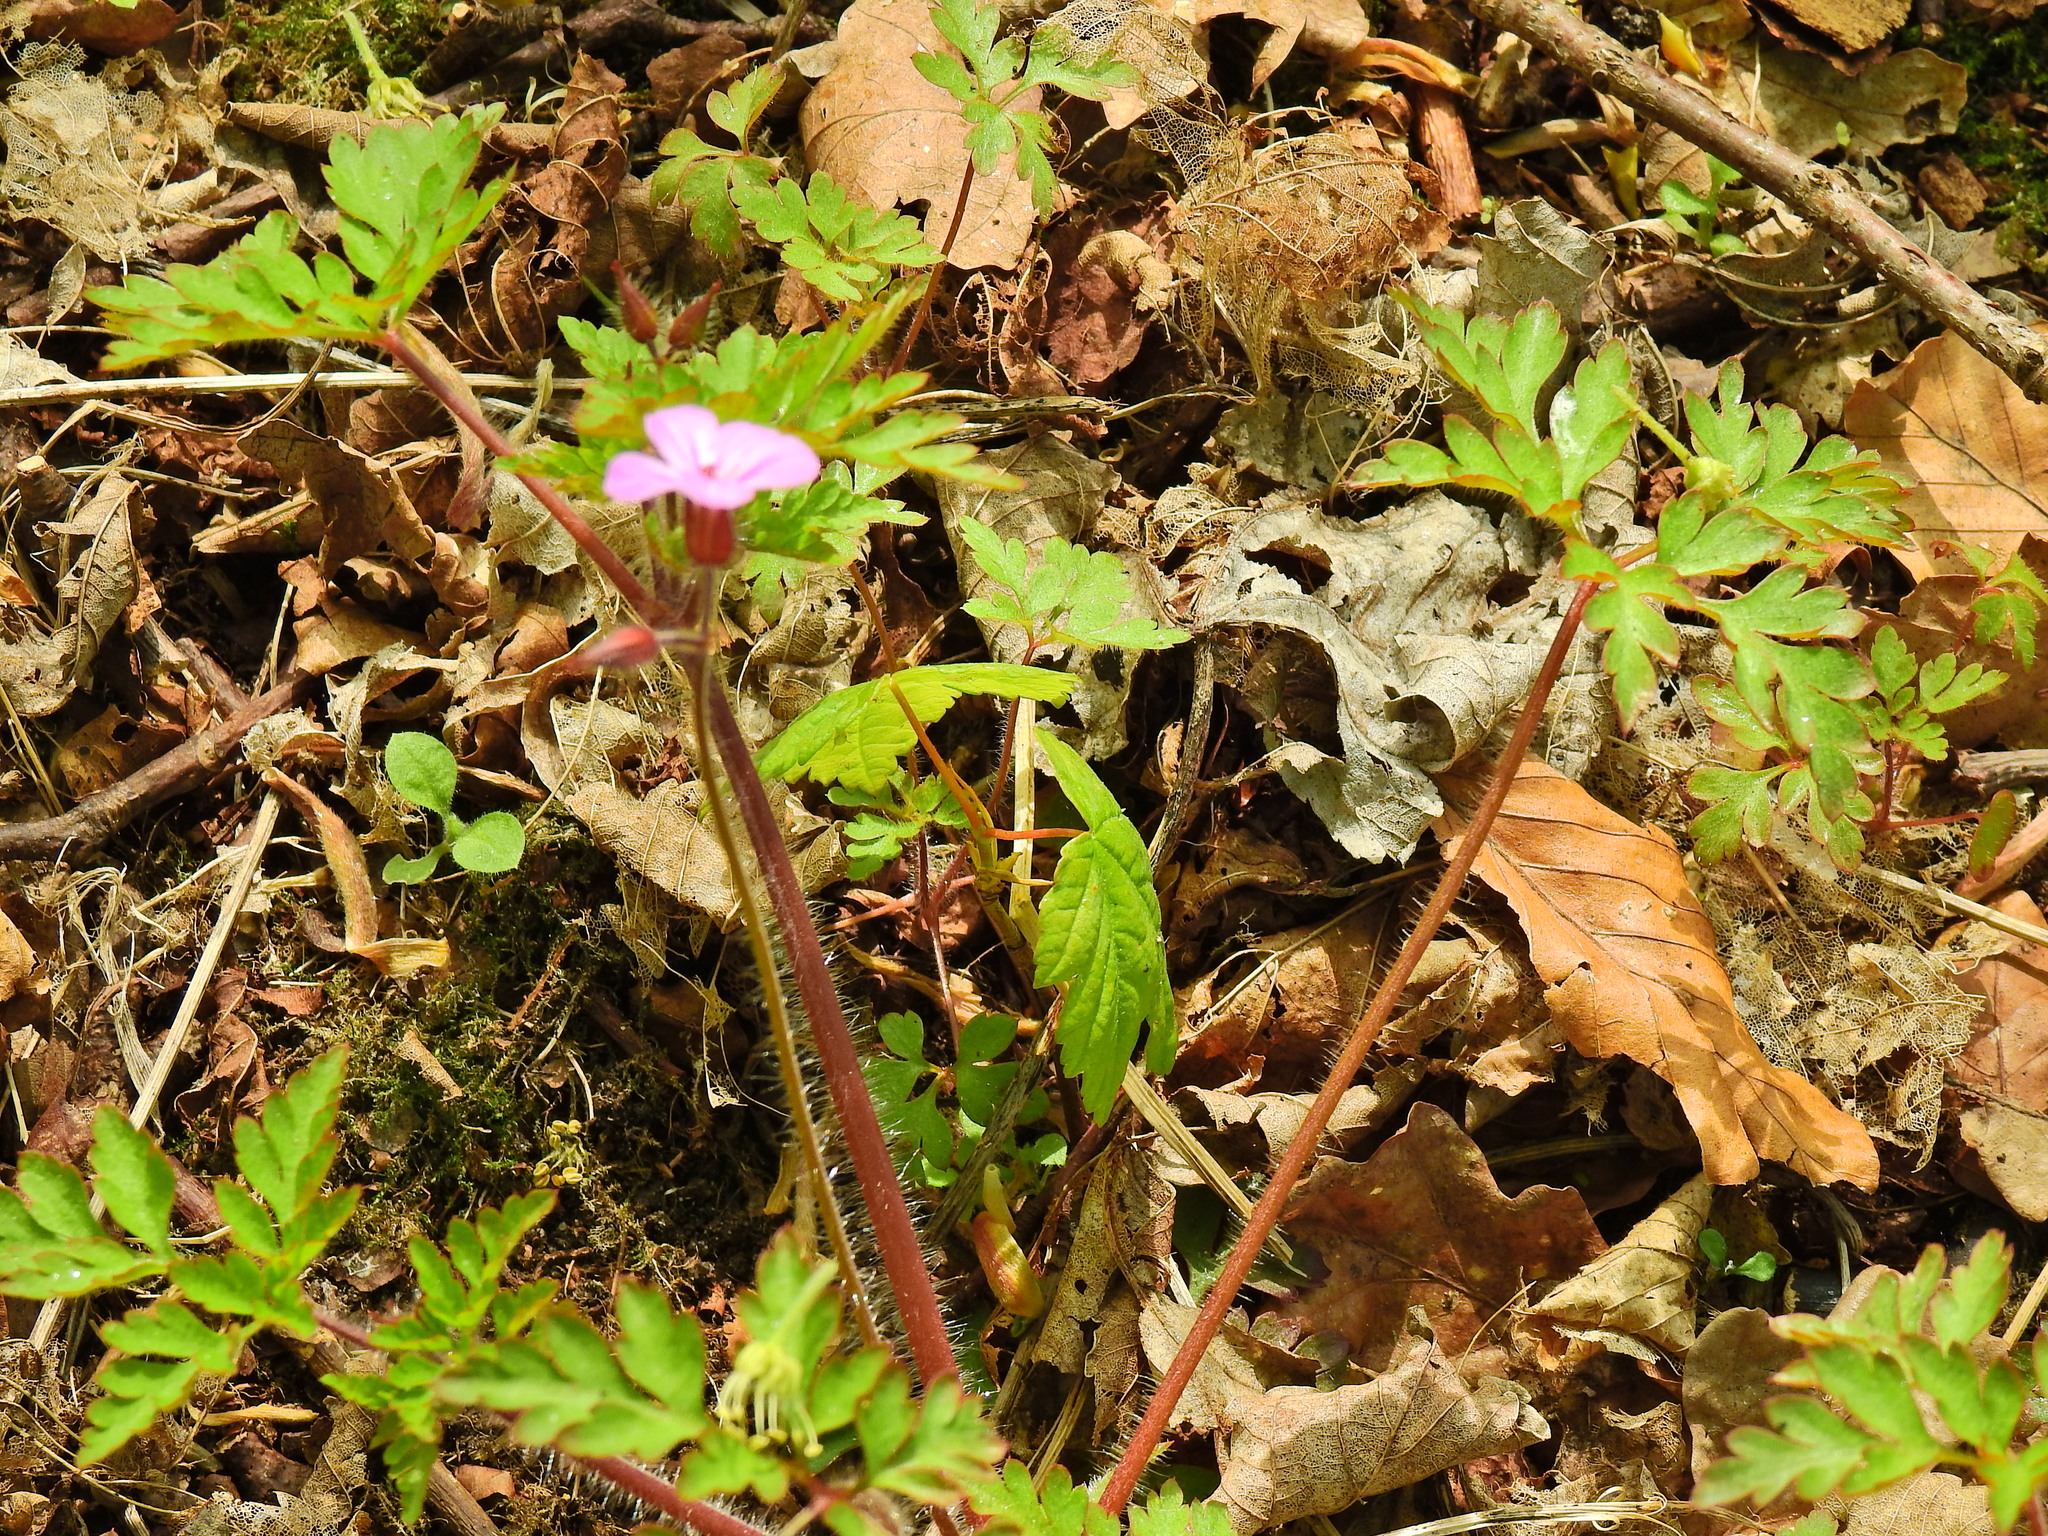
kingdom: Plantae
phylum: Tracheophyta
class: Magnoliopsida
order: Geraniales
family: Geraniaceae
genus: Geranium
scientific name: Geranium robertianum
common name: Herb-robert
